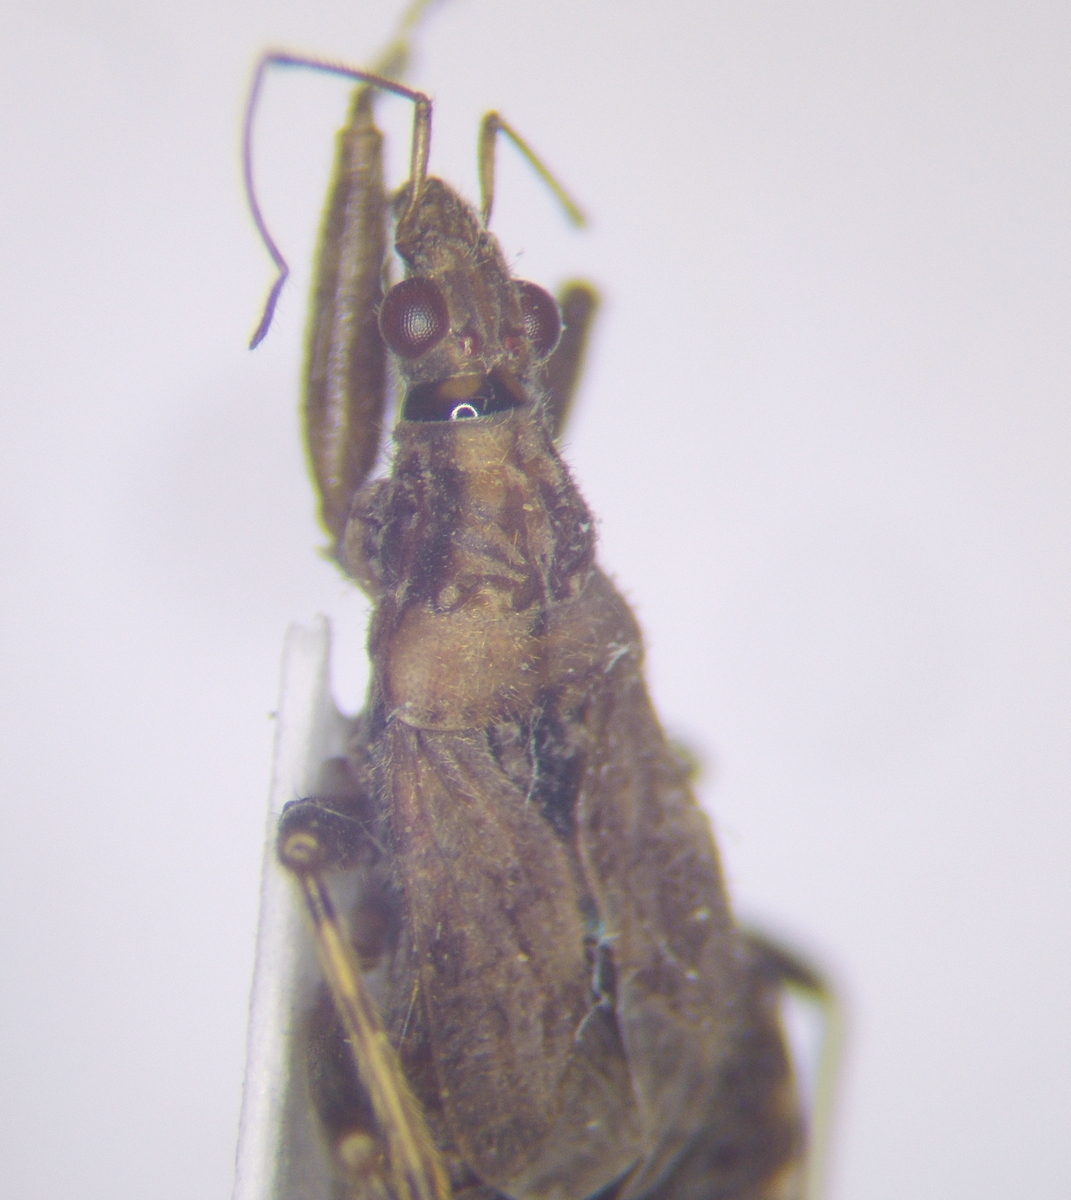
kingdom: Animalia
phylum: Arthropoda
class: Insecta
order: Hemiptera
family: Nabidae
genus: Himacerus
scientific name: Himacerus mirmicoides
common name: Ant damsel bug
